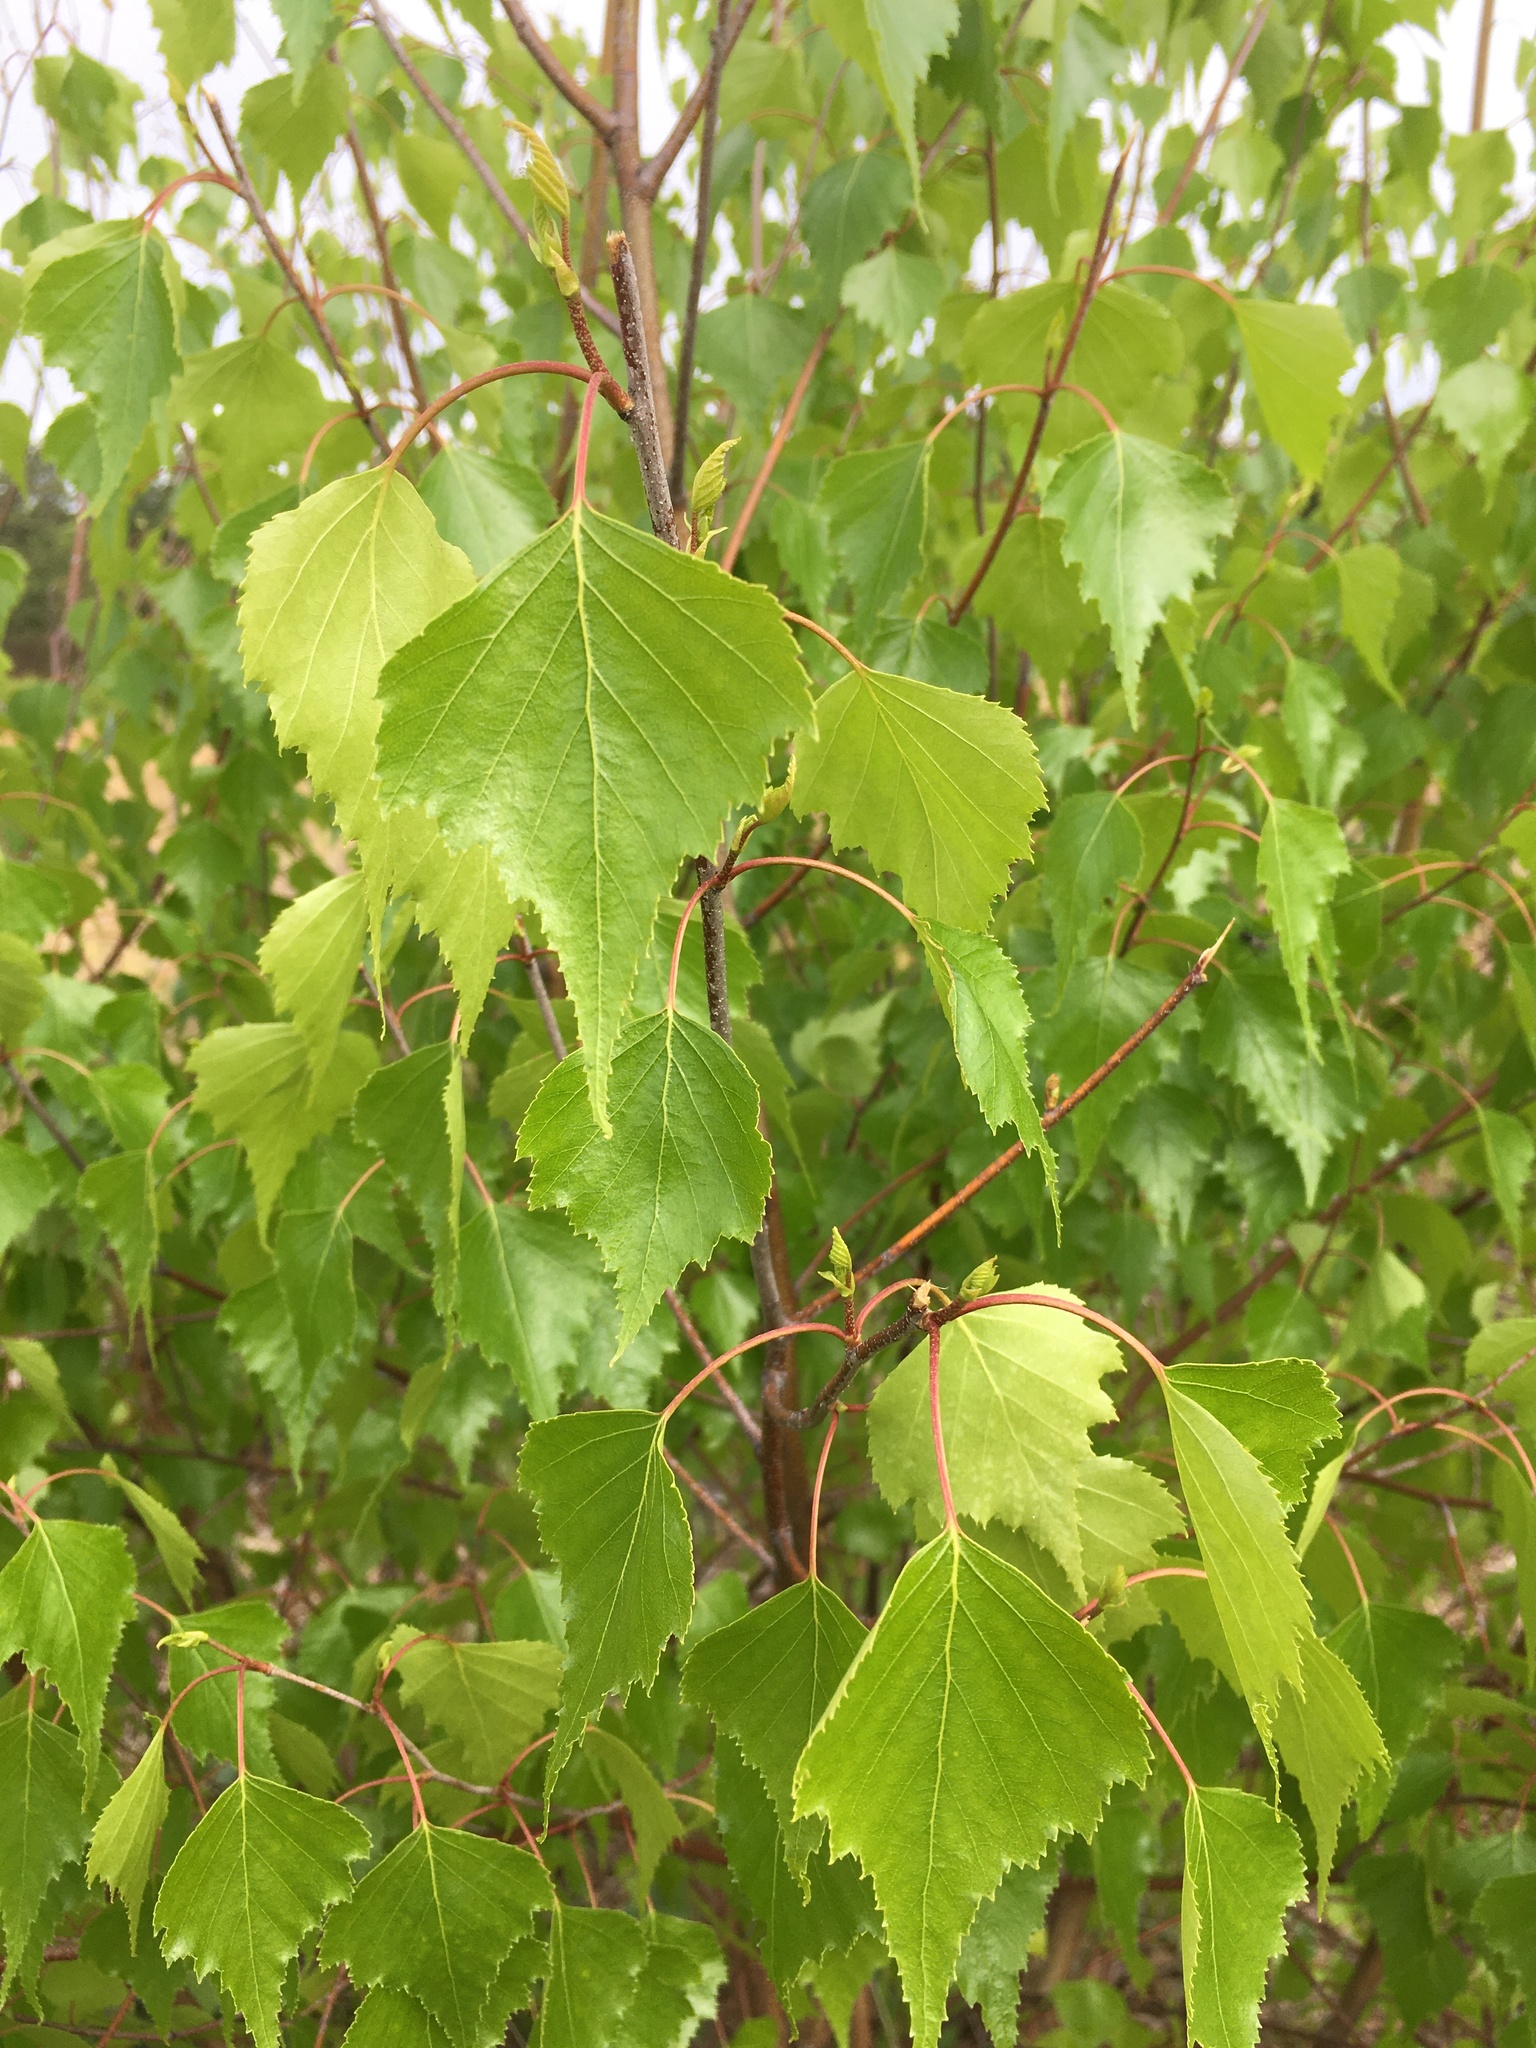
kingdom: Plantae
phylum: Tracheophyta
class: Magnoliopsida
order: Fagales
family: Betulaceae
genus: Betula
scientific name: Betula populifolia
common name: Fire birch
